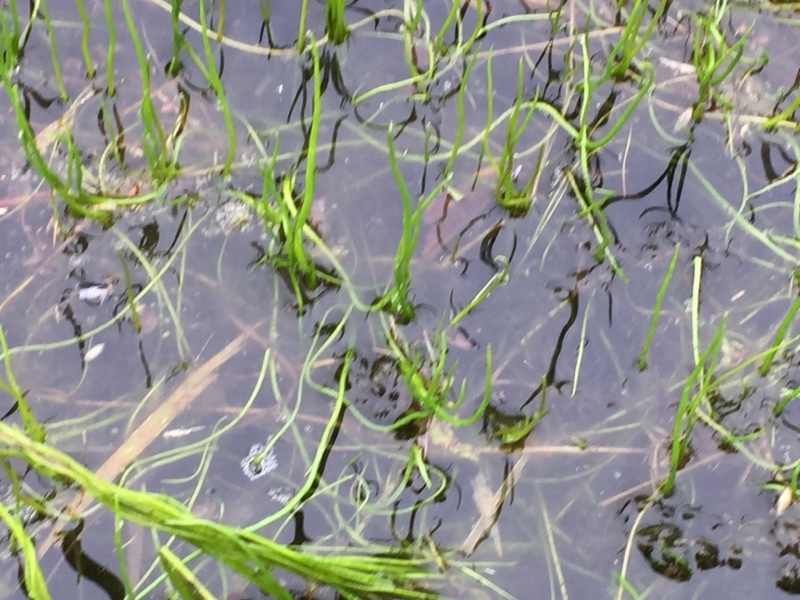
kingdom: Plantae
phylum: Tracheophyta
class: Polypodiopsida
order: Salviniales
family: Marsileaceae
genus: Pilularia
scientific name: Pilularia globulifera
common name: Pillwort
